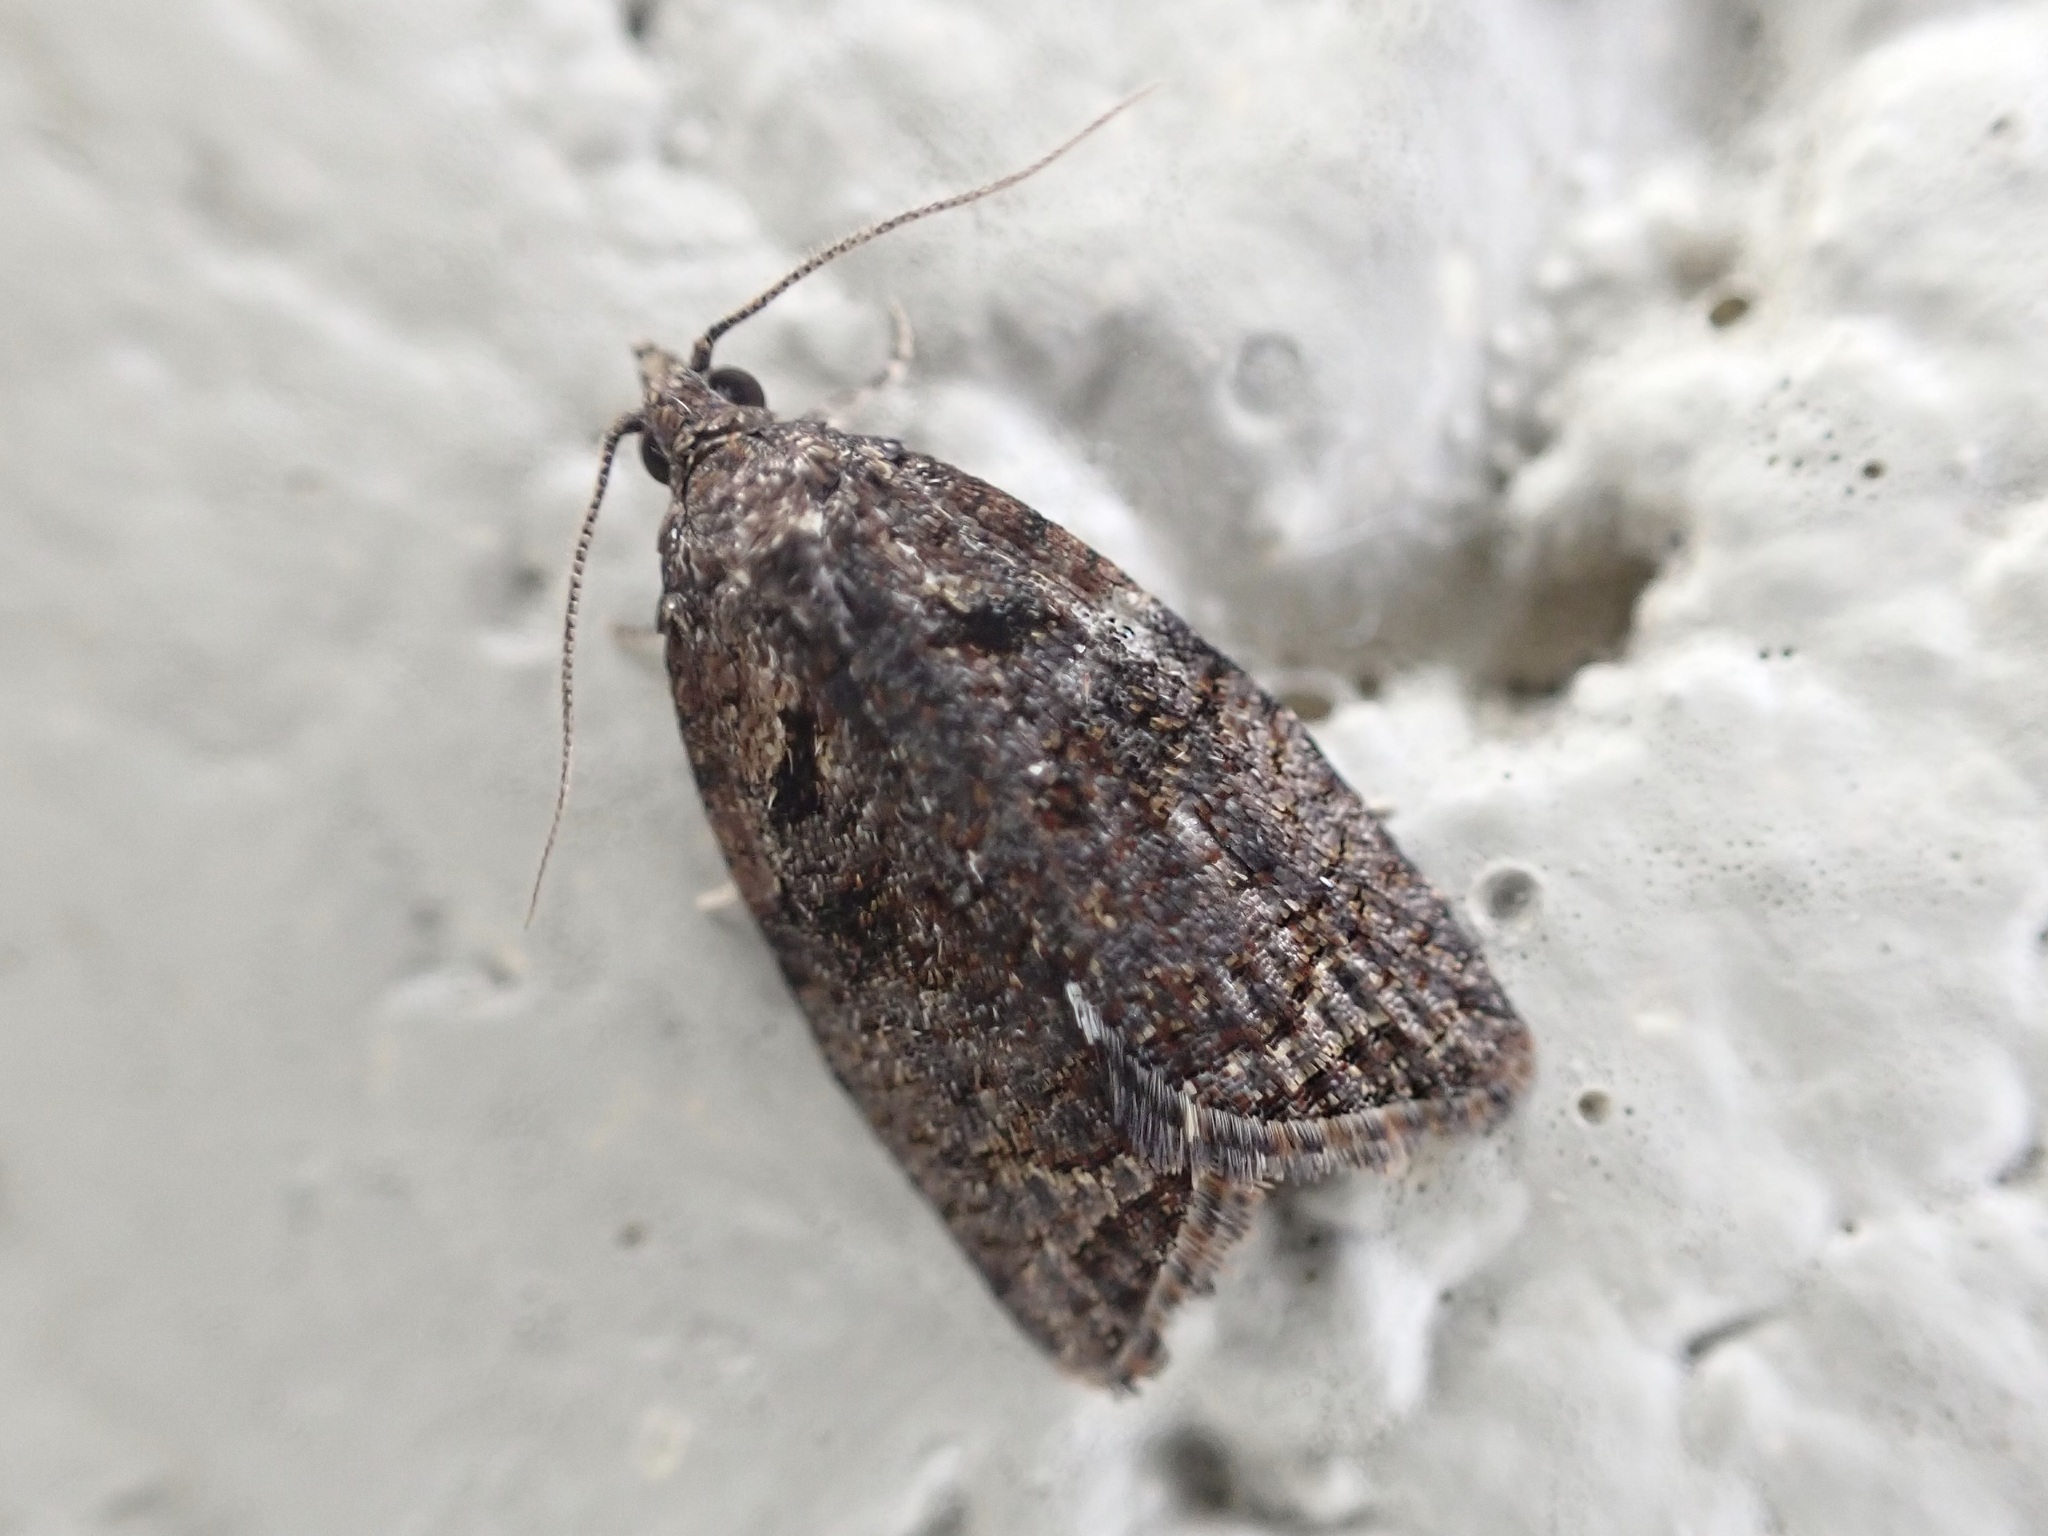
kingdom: Animalia
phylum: Arthropoda
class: Insecta
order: Lepidoptera
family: Tortricidae
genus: Capua
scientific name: Capua intractana
